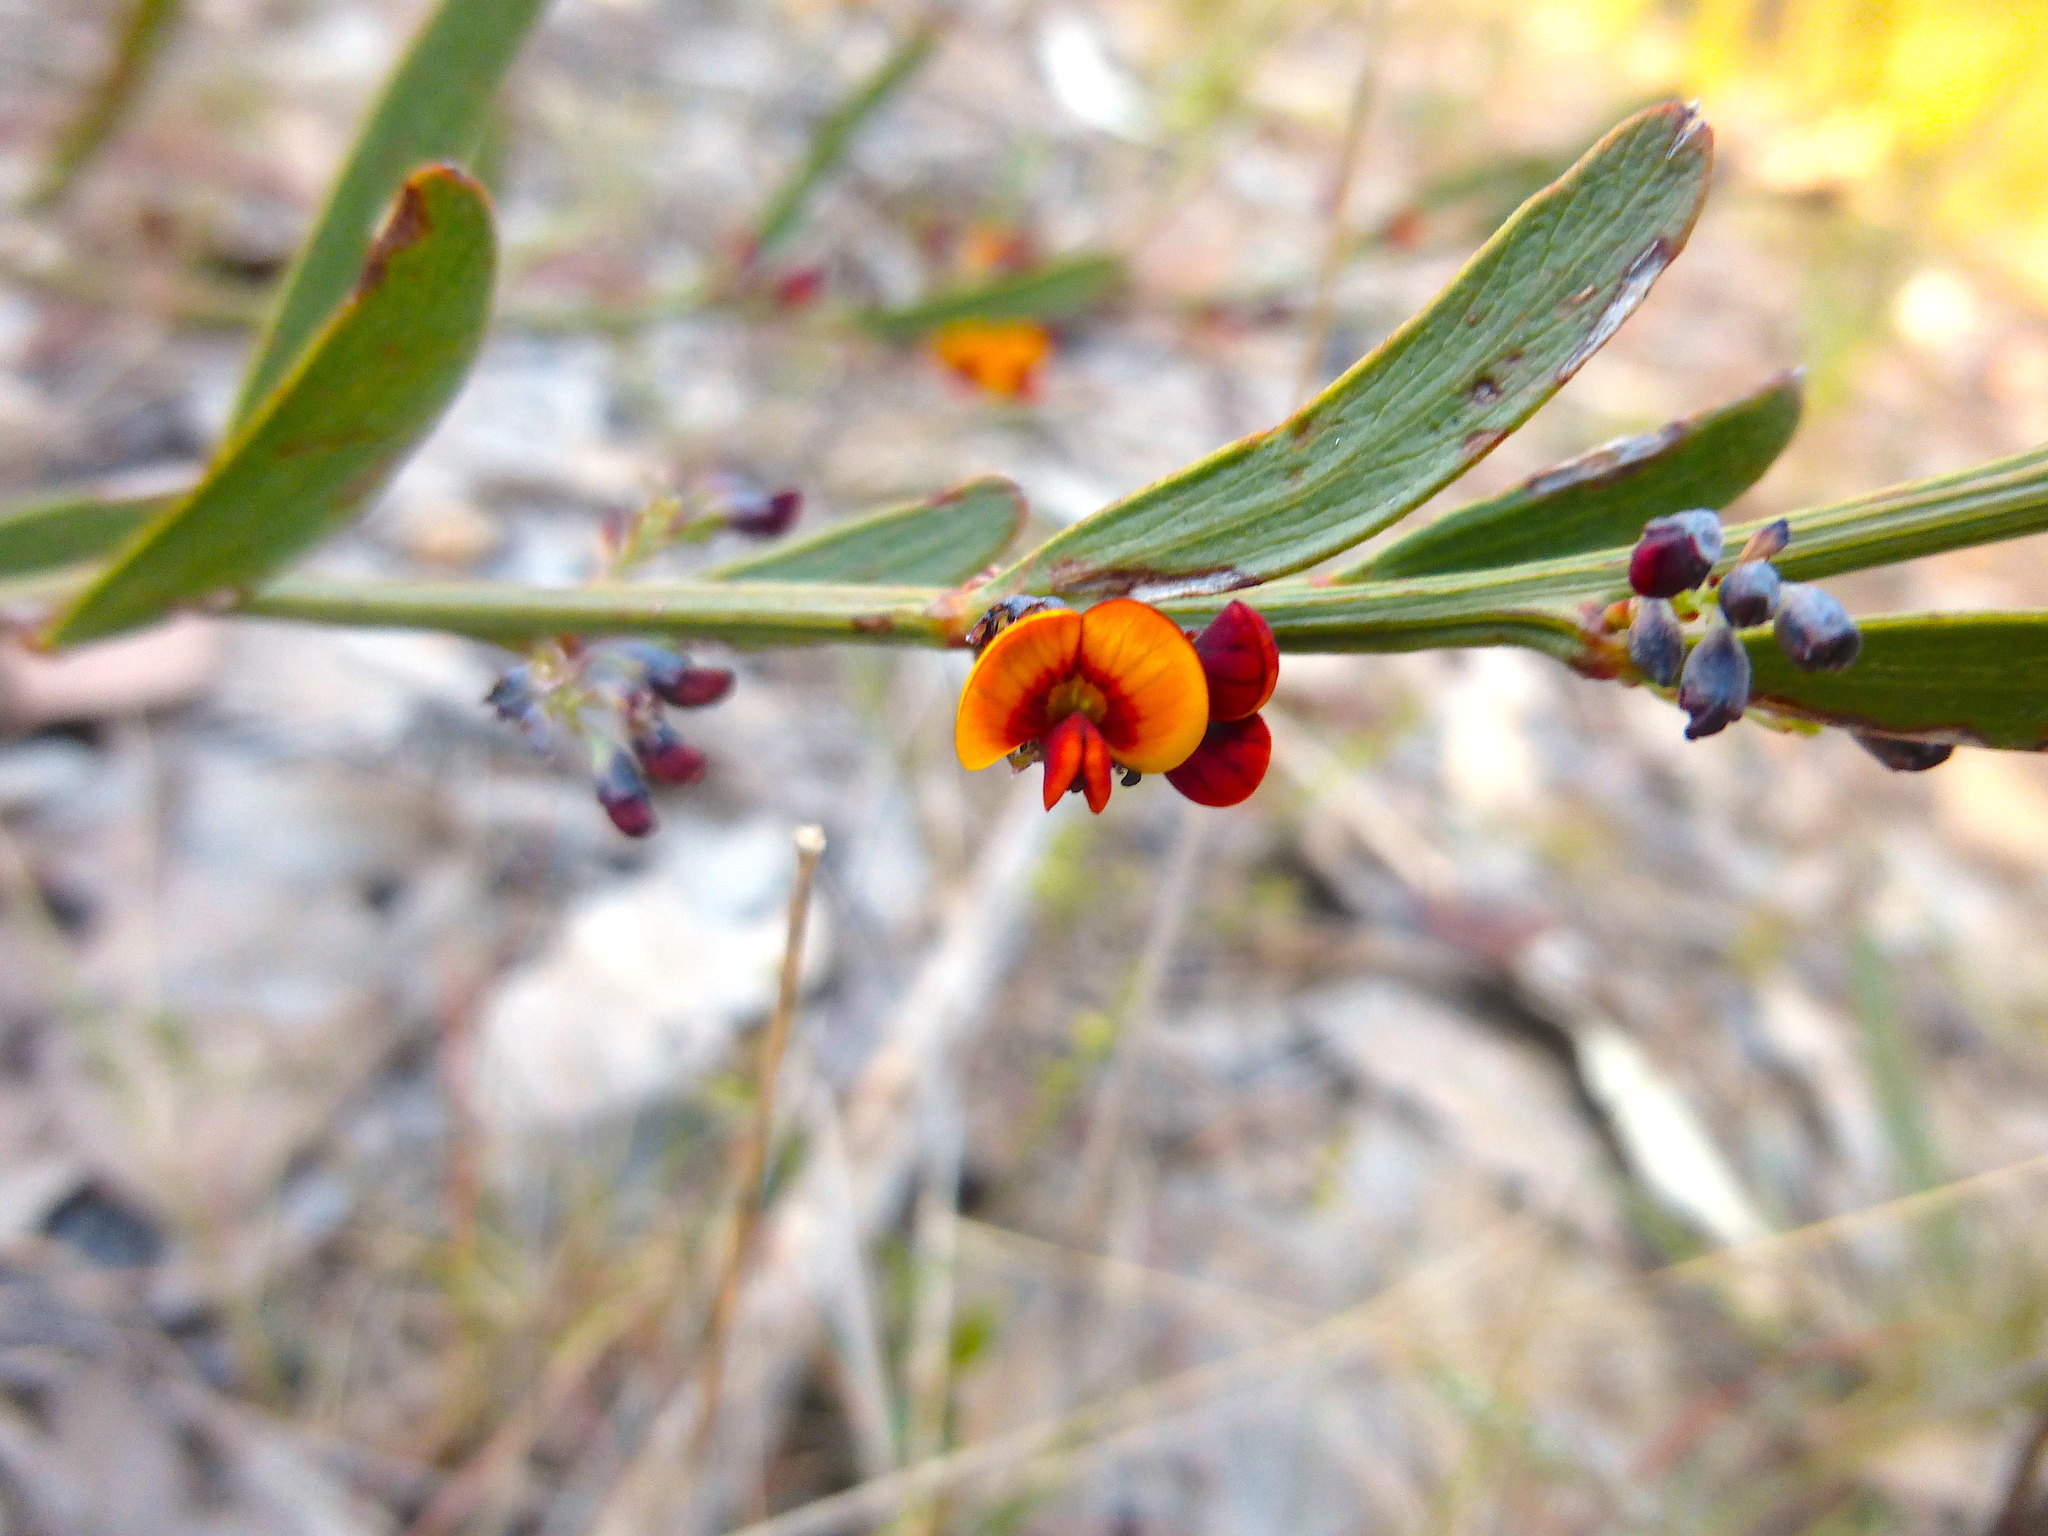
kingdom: Plantae
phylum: Tracheophyta
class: Magnoliopsida
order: Fabales
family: Fabaceae
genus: Daviesia
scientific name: Daviesia leptophylla
